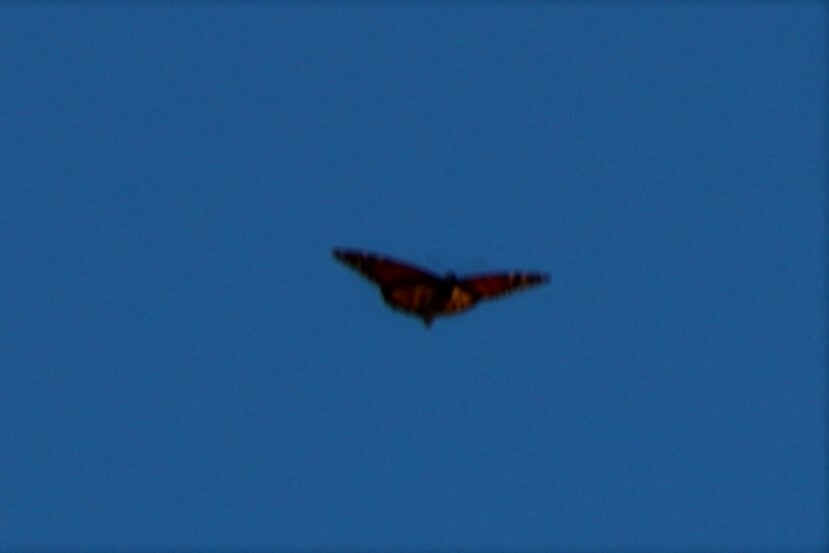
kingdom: Animalia
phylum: Arthropoda
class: Insecta
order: Lepidoptera
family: Nymphalidae
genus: Danaus
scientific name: Danaus plexippus
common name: Monarch
